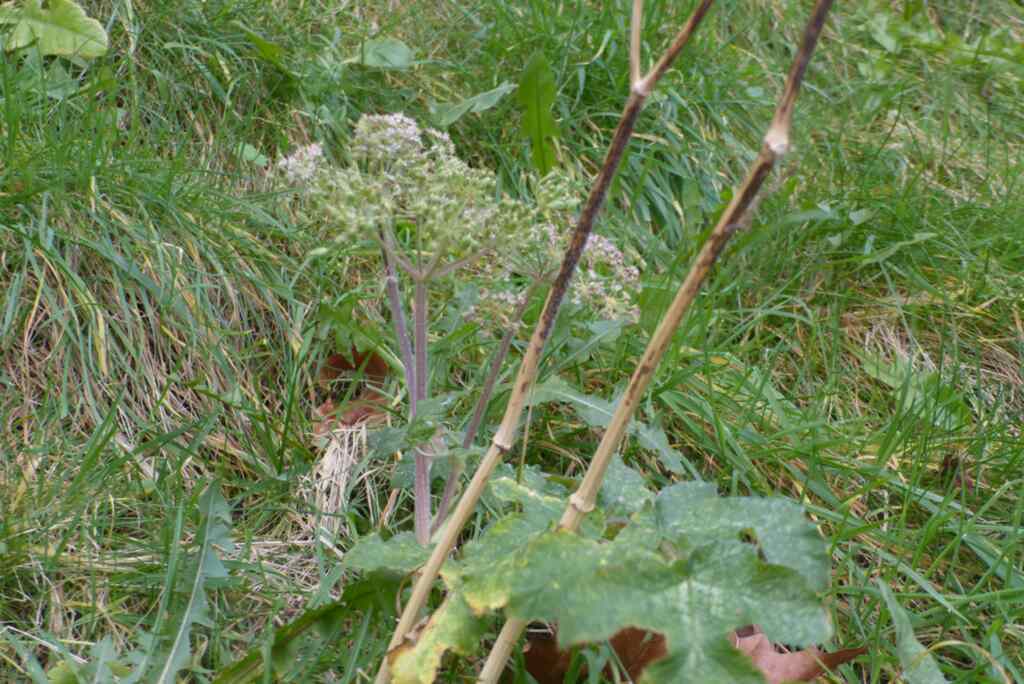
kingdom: Plantae
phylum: Tracheophyta
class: Magnoliopsida
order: Apiales
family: Apiaceae
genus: Heracleum
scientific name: Heracleum sphondylium
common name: Hogweed
